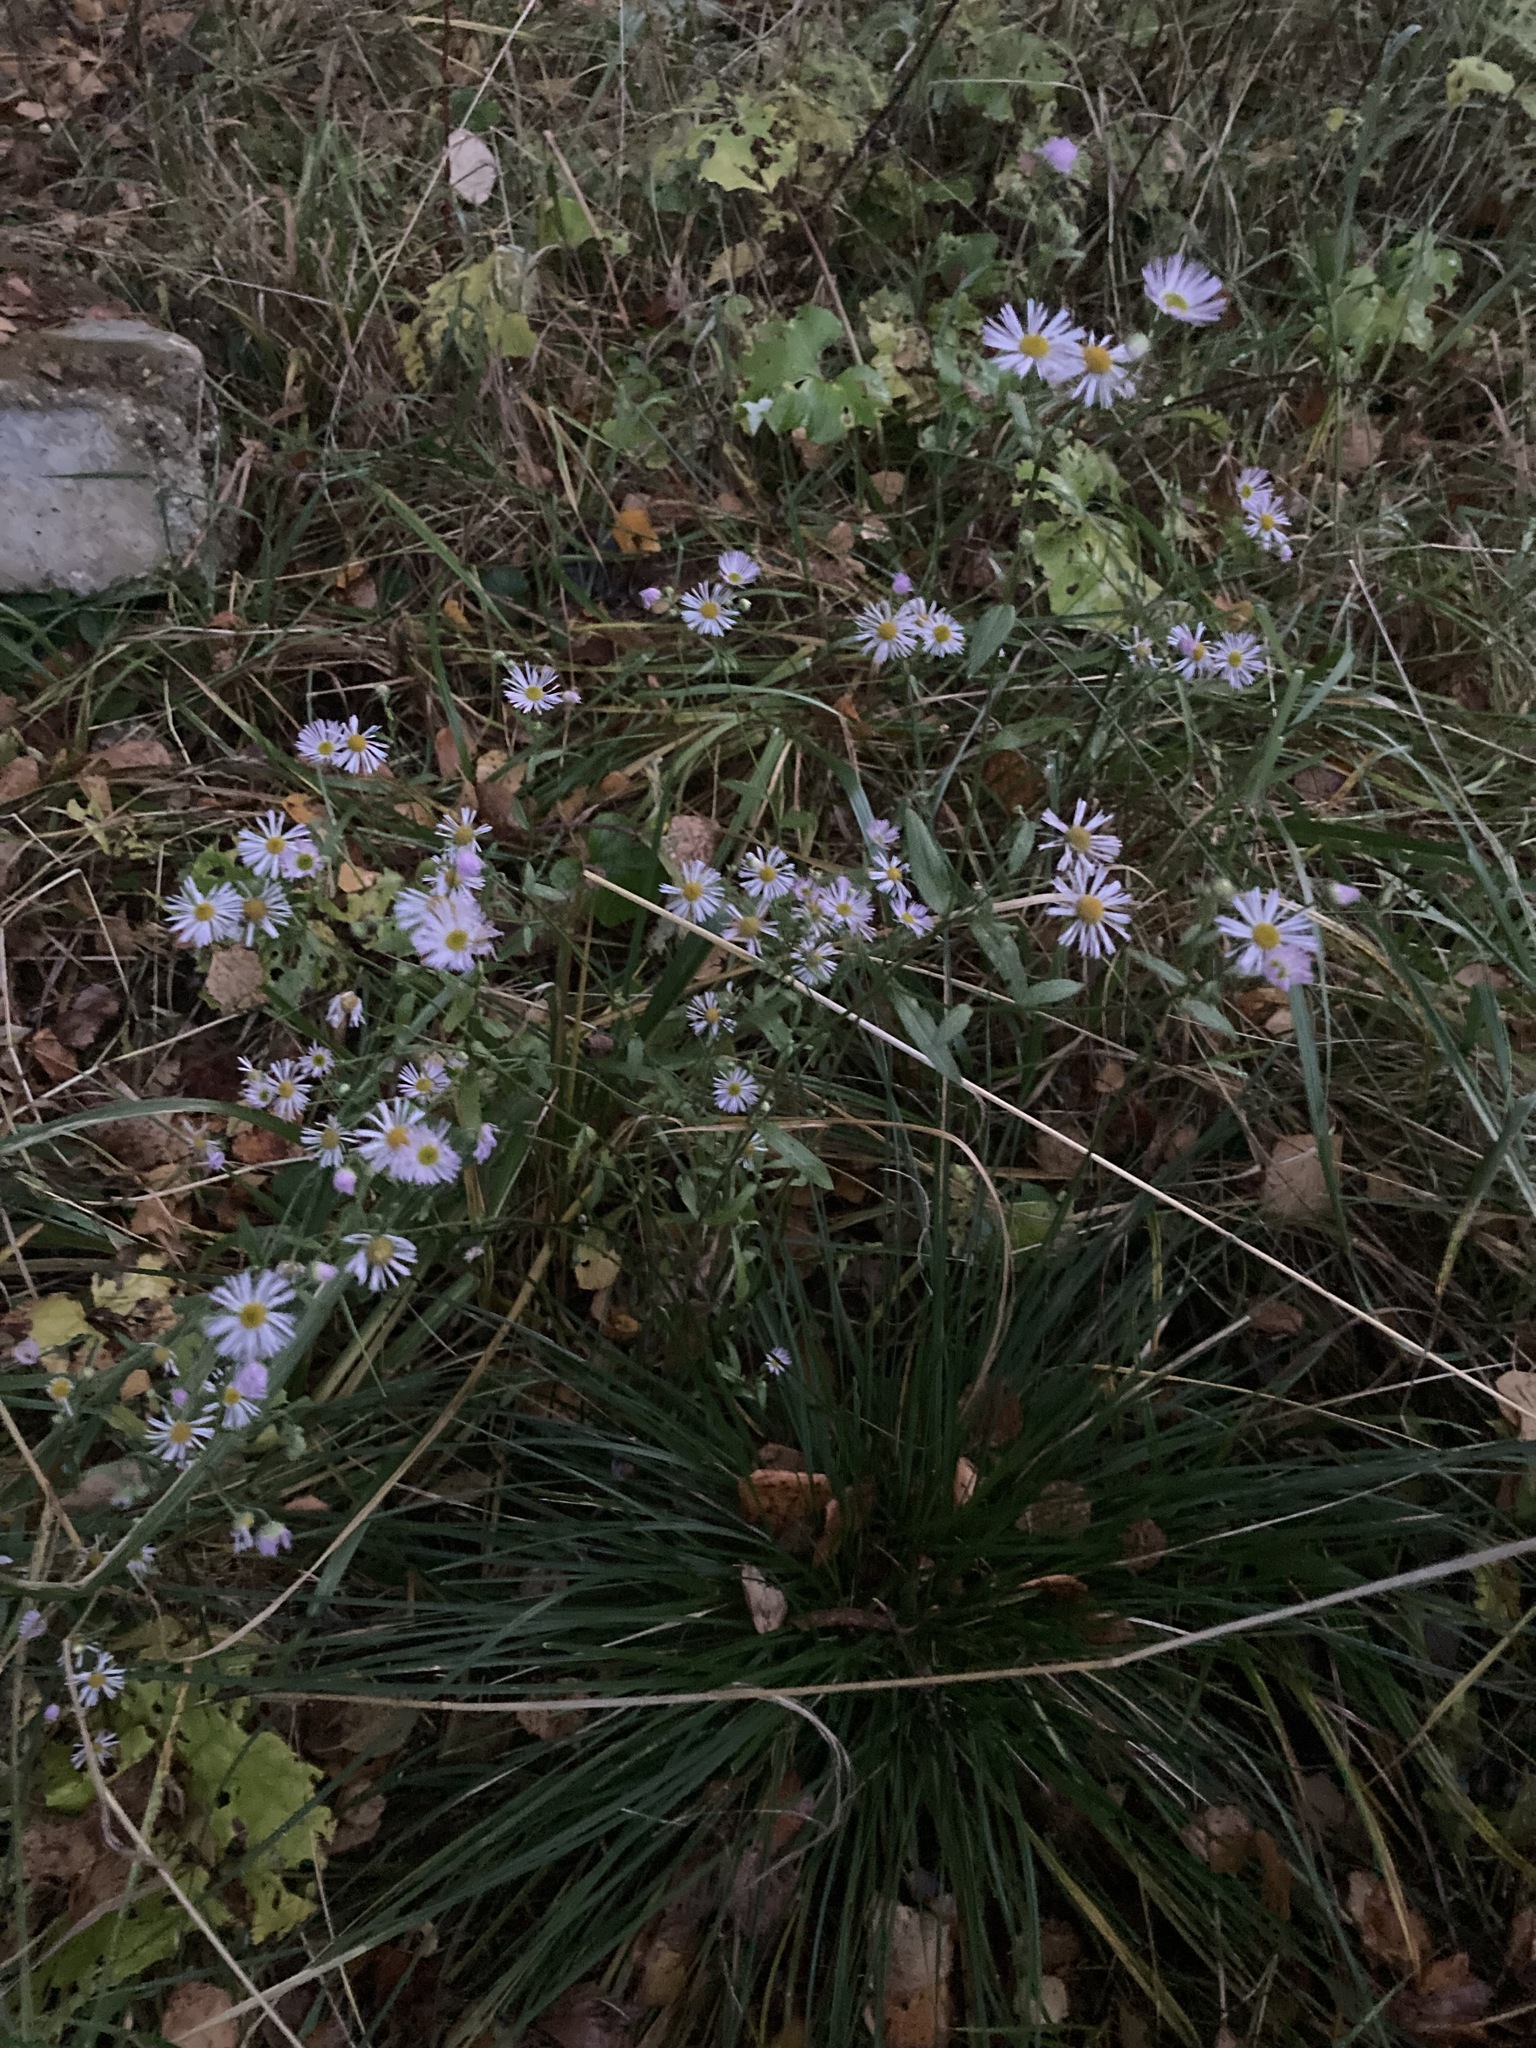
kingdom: Plantae
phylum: Tracheophyta
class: Magnoliopsida
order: Asterales
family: Asteraceae
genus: Erigeron
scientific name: Erigeron annuus
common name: Tall fleabane
